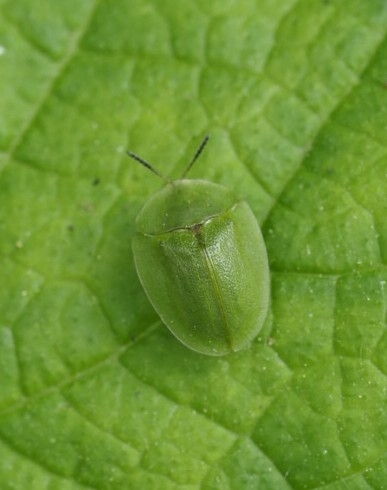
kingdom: Animalia
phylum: Arthropoda
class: Insecta
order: Coleoptera
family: Chrysomelidae
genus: Cassida
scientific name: Cassida viridis
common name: Green tortoise beetle
